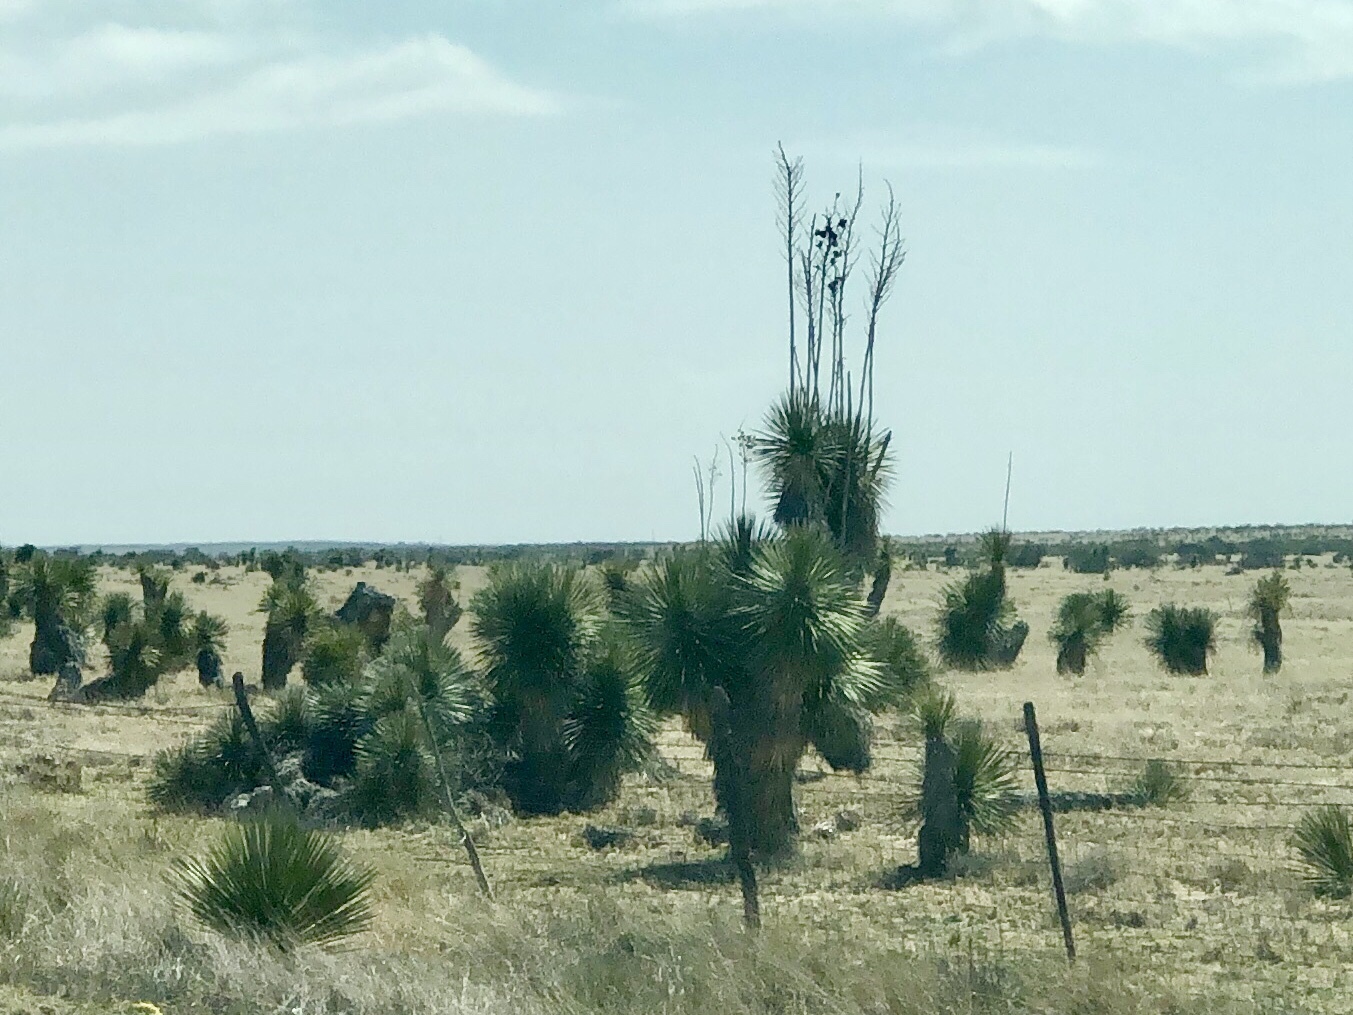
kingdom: Plantae
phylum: Tracheophyta
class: Liliopsida
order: Asparagales
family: Asparagaceae
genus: Yucca
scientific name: Yucca elata
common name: Palmella
